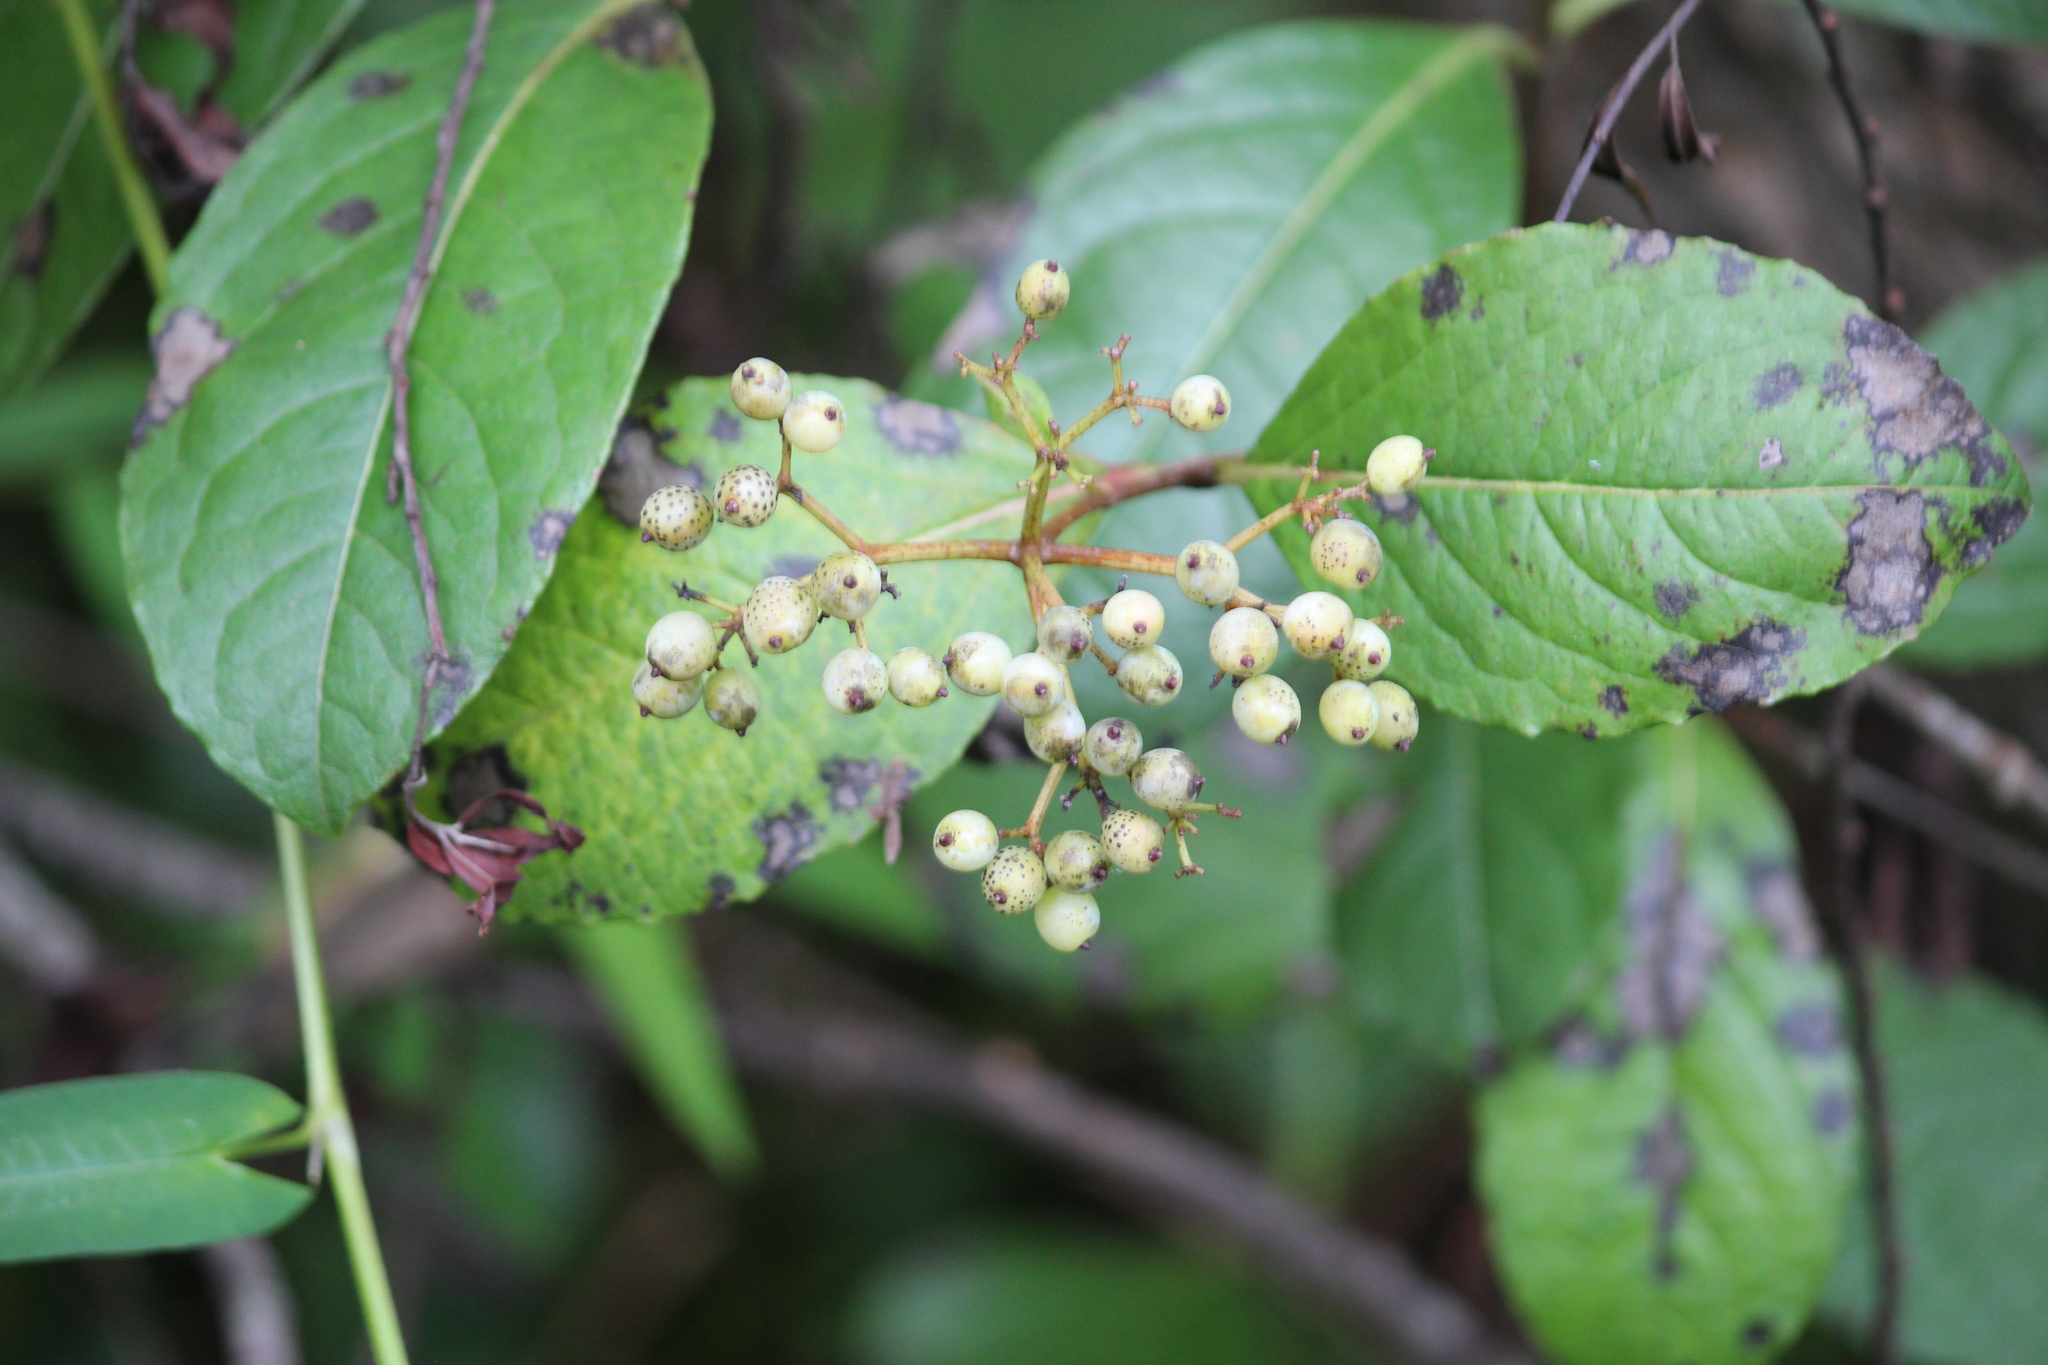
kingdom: Plantae
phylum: Tracheophyta
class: Magnoliopsida
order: Dipsacales
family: Viburnaceae
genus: Viburnum
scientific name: Viburnum nudum
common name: Possum haw
